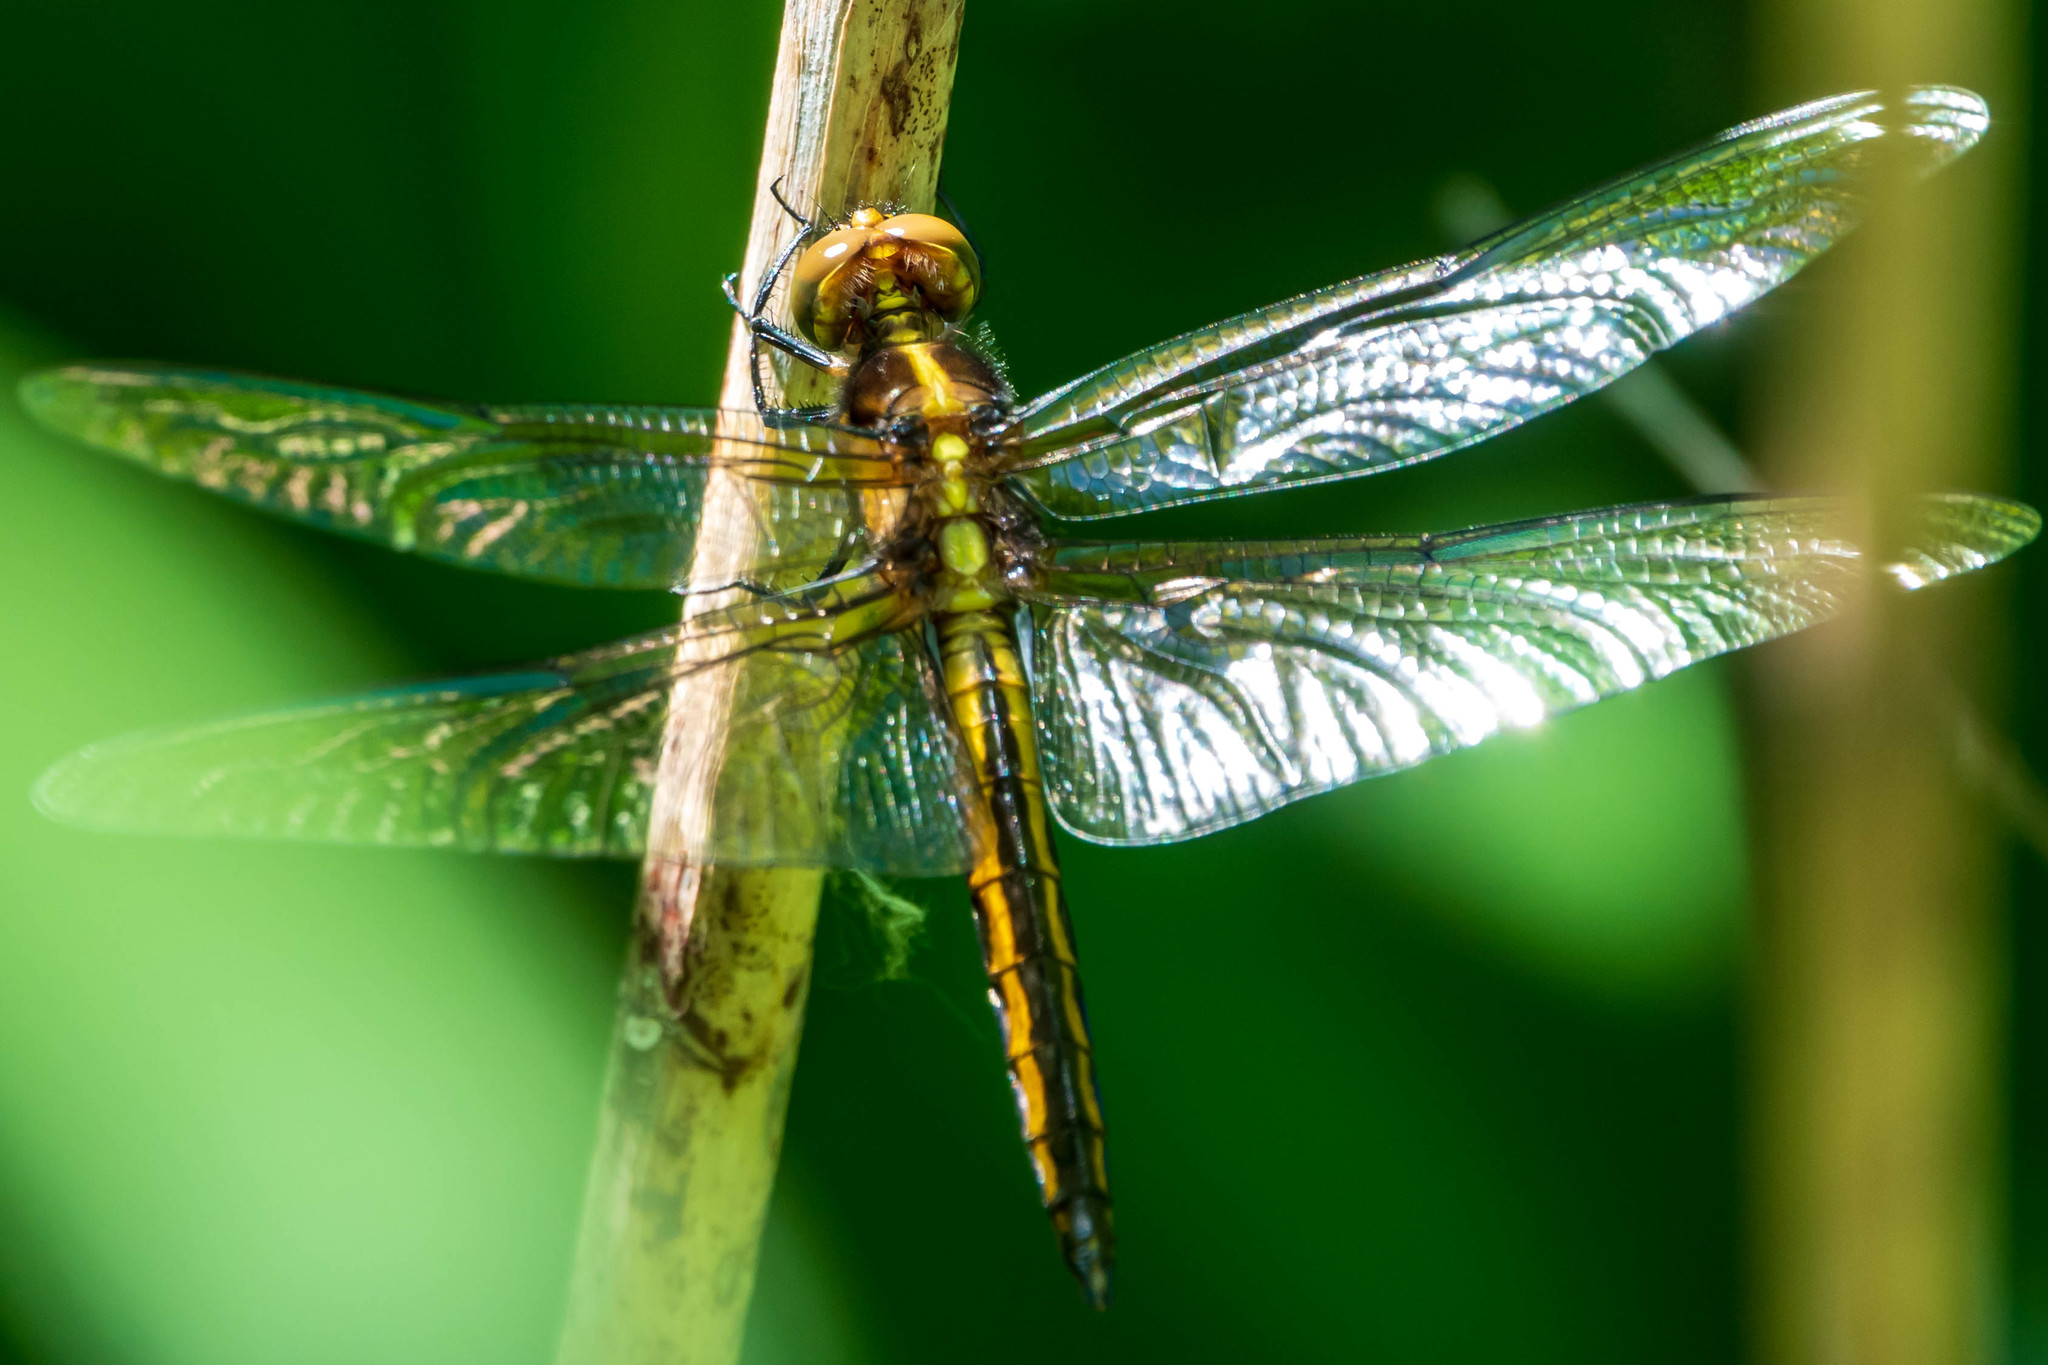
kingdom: Animalia
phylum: Arthropoda
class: Insecta
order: Odonata
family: Libellulidae
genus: Libellula
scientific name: Libellula luctuosa
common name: Widow skimmer
